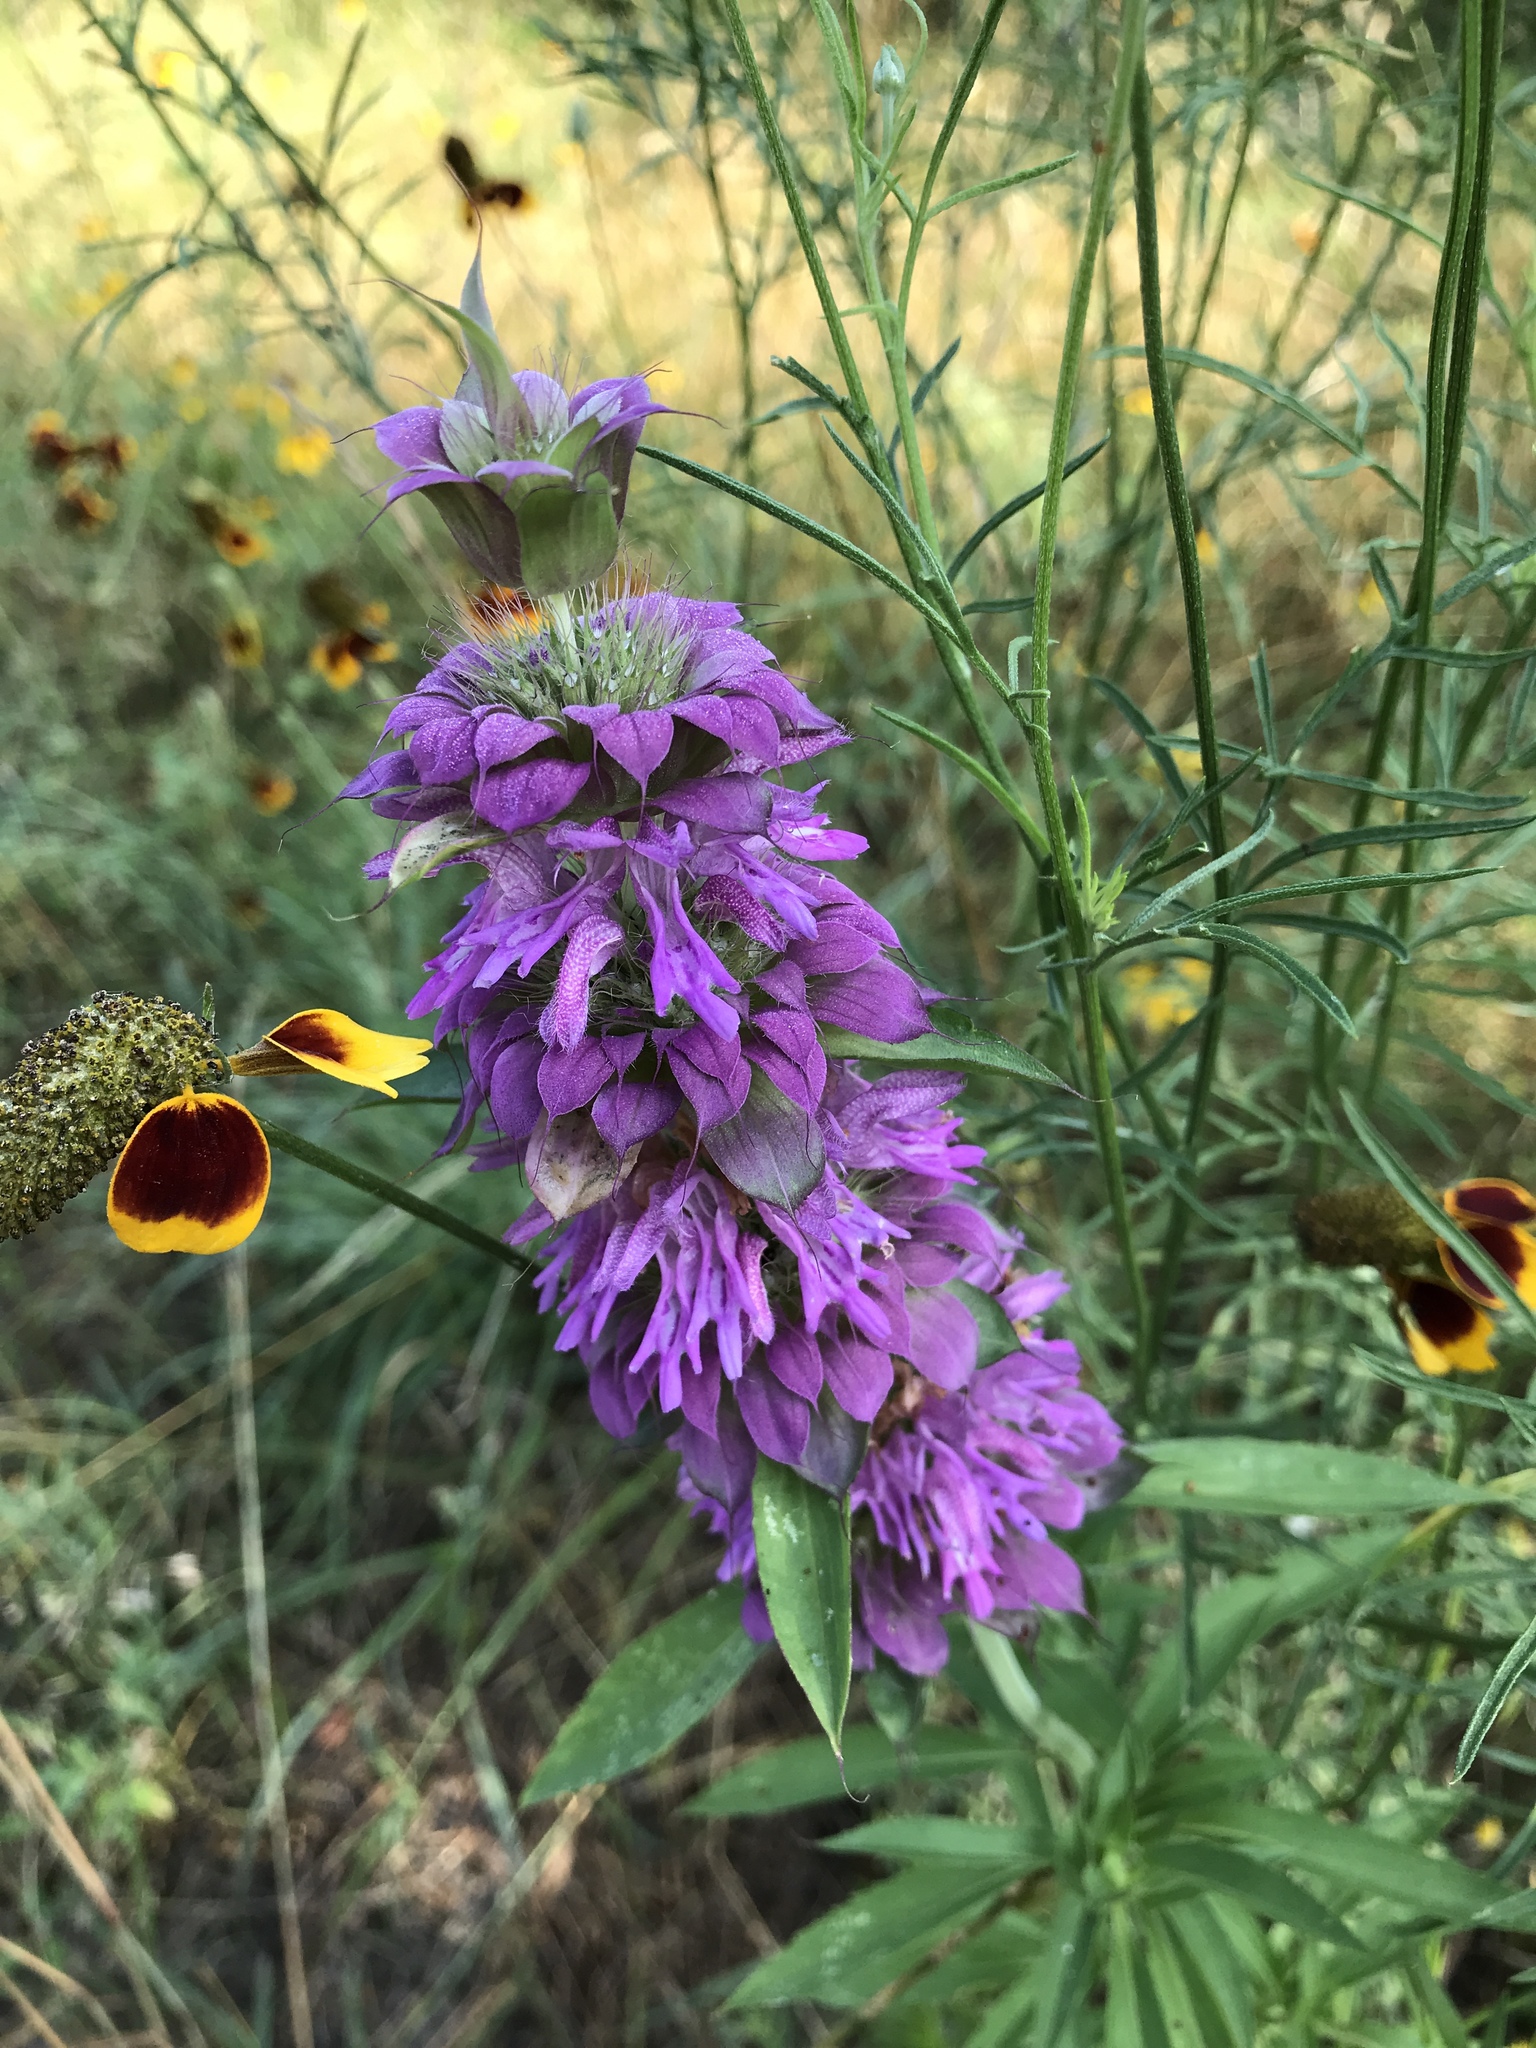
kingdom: Plantae
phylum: Tracheophyta
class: Magnoliopsida
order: Lamiales
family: Lamiaceae
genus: Monarda
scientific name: Monarda citriodora
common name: Lemon beebalm
